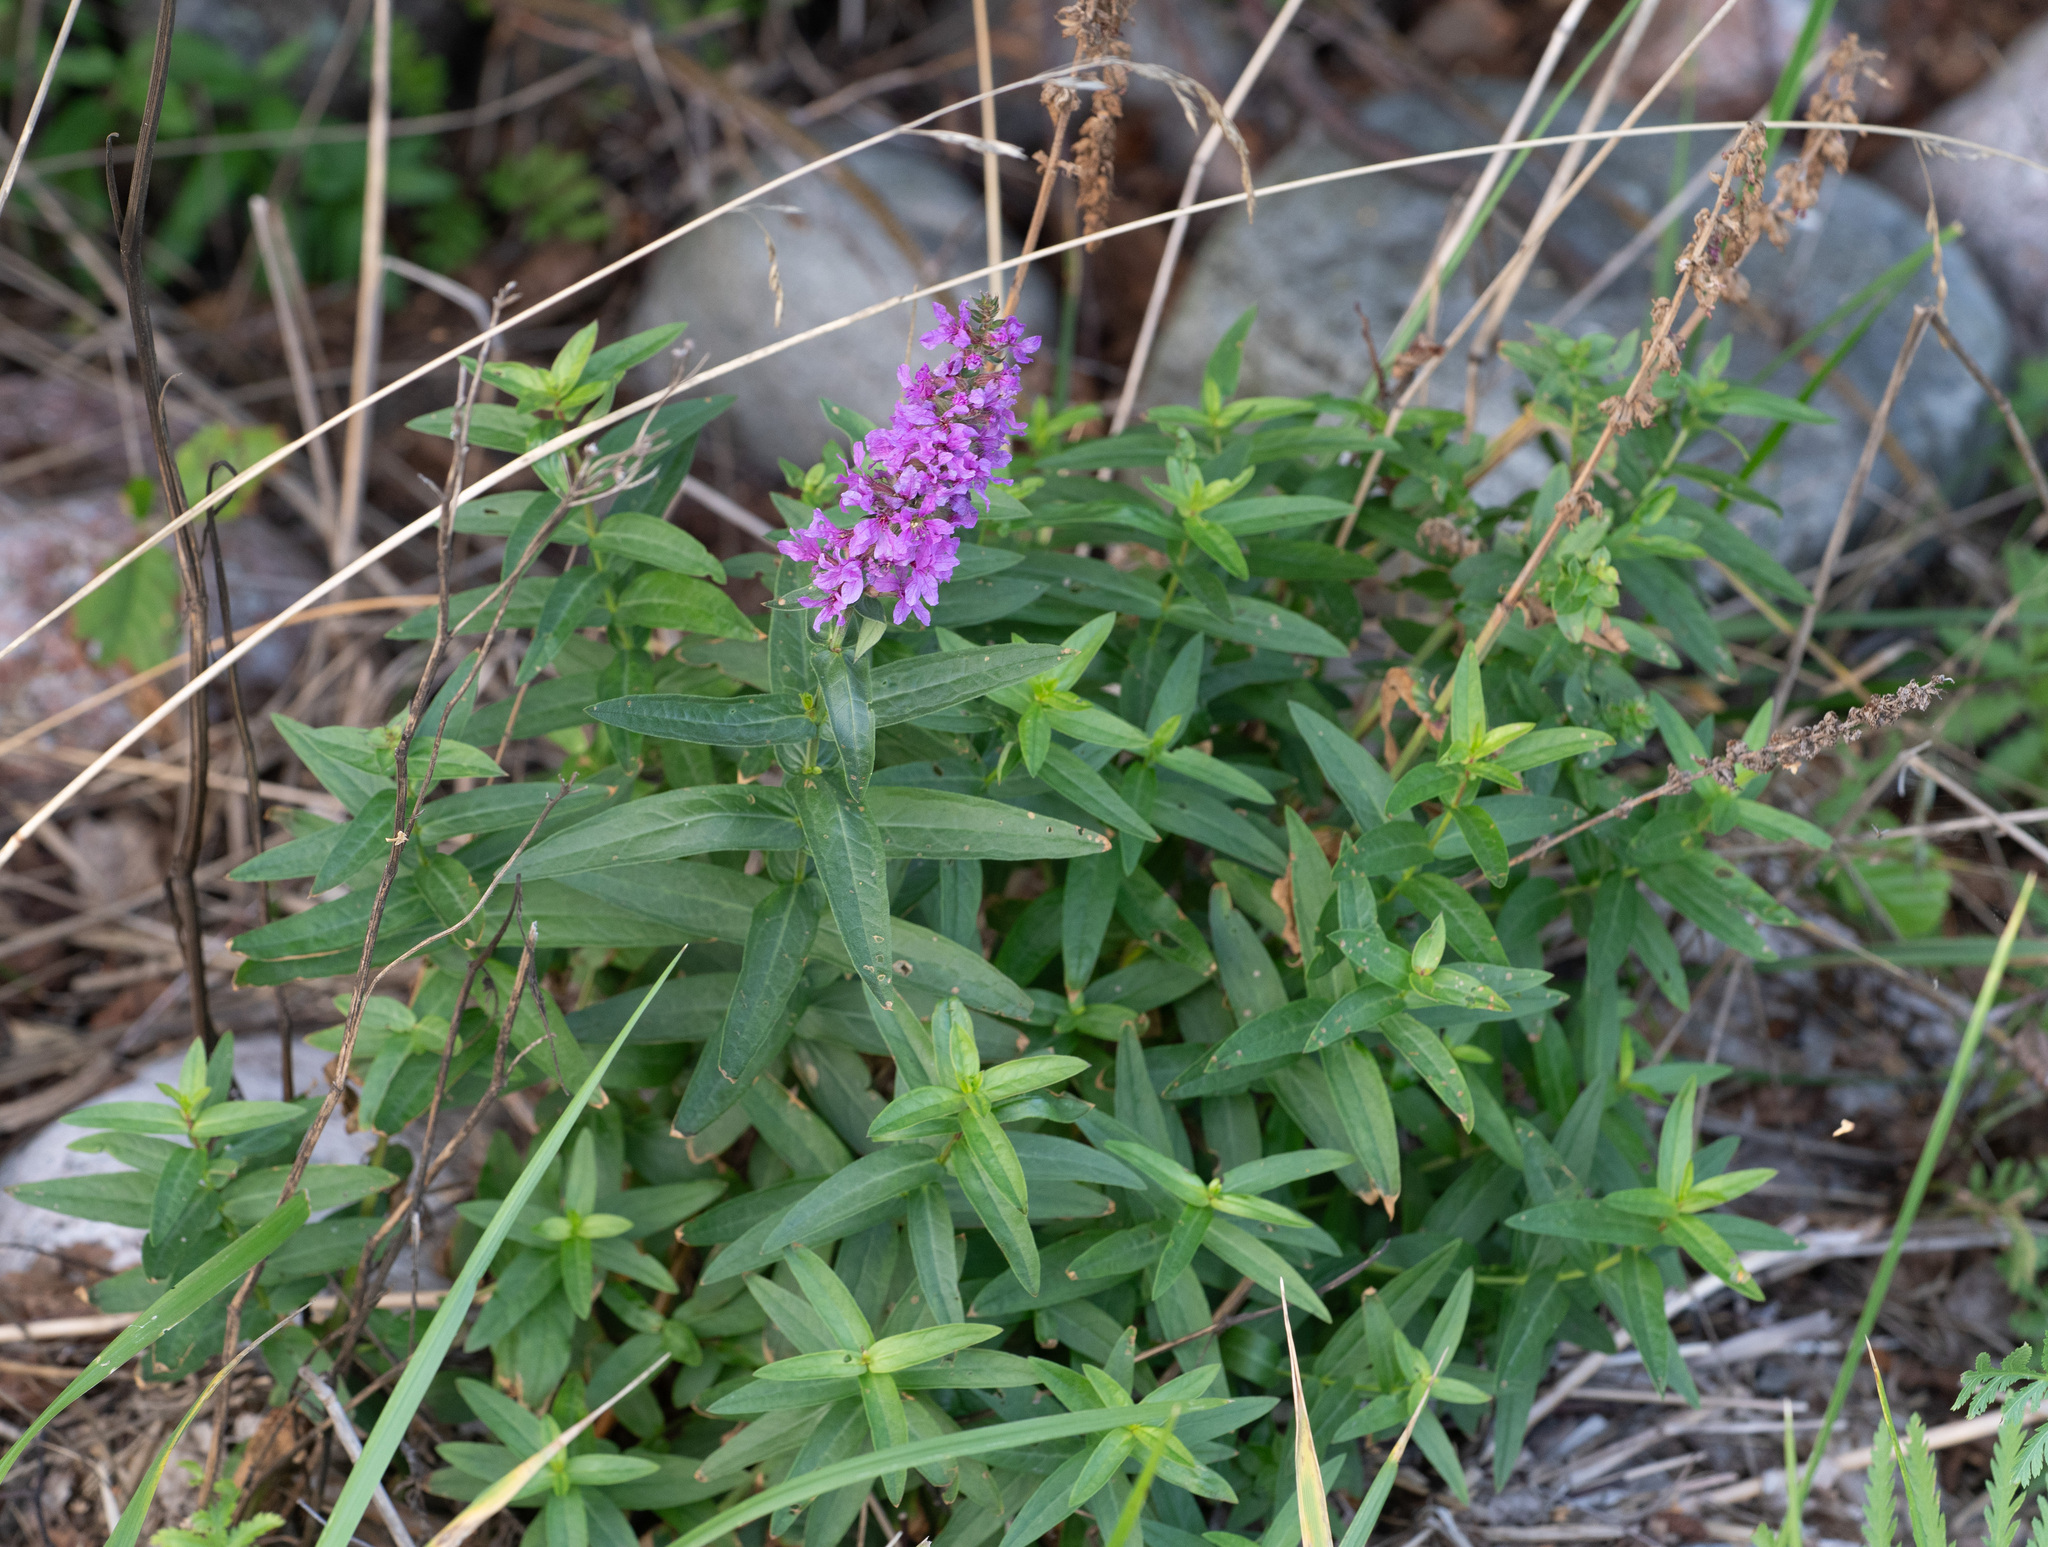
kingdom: Plantae
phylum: Tracheophyta
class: Magnoliopsida
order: Myrtales
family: Lythraceae
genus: Lythrum
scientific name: Lythrum salicaria
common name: Purple loosestrife
